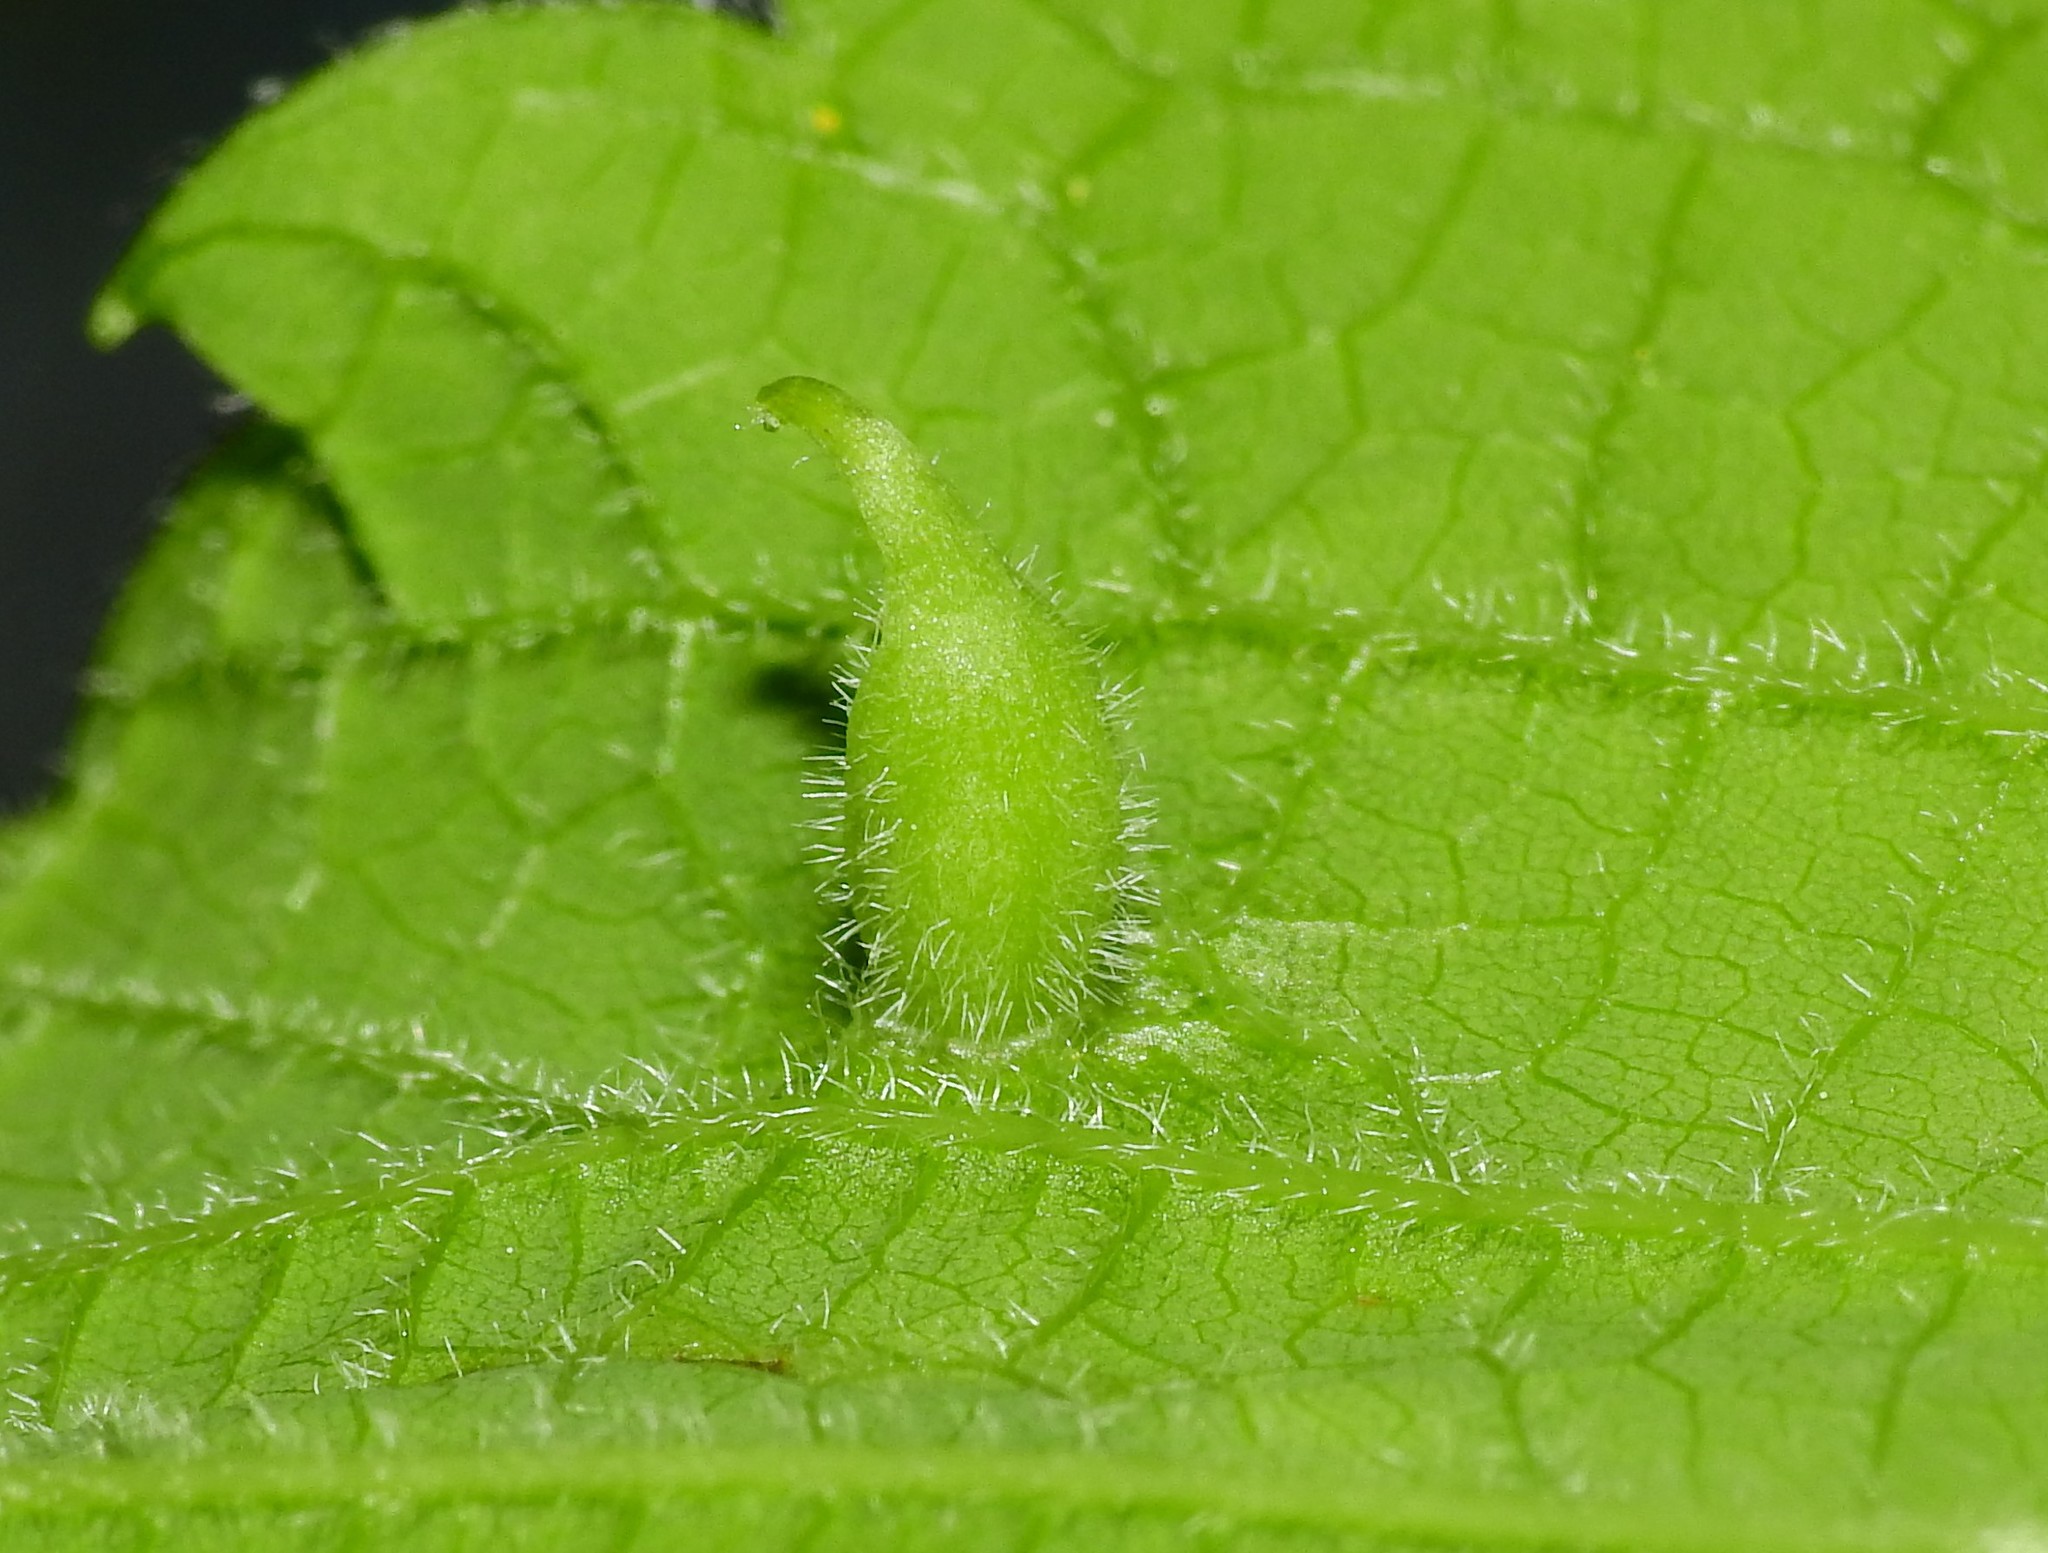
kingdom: Animalia
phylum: Arthropoda
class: Insecta
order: Diptera
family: Cecidomyiidae
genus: Celticecis
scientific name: Celticecis ovata
